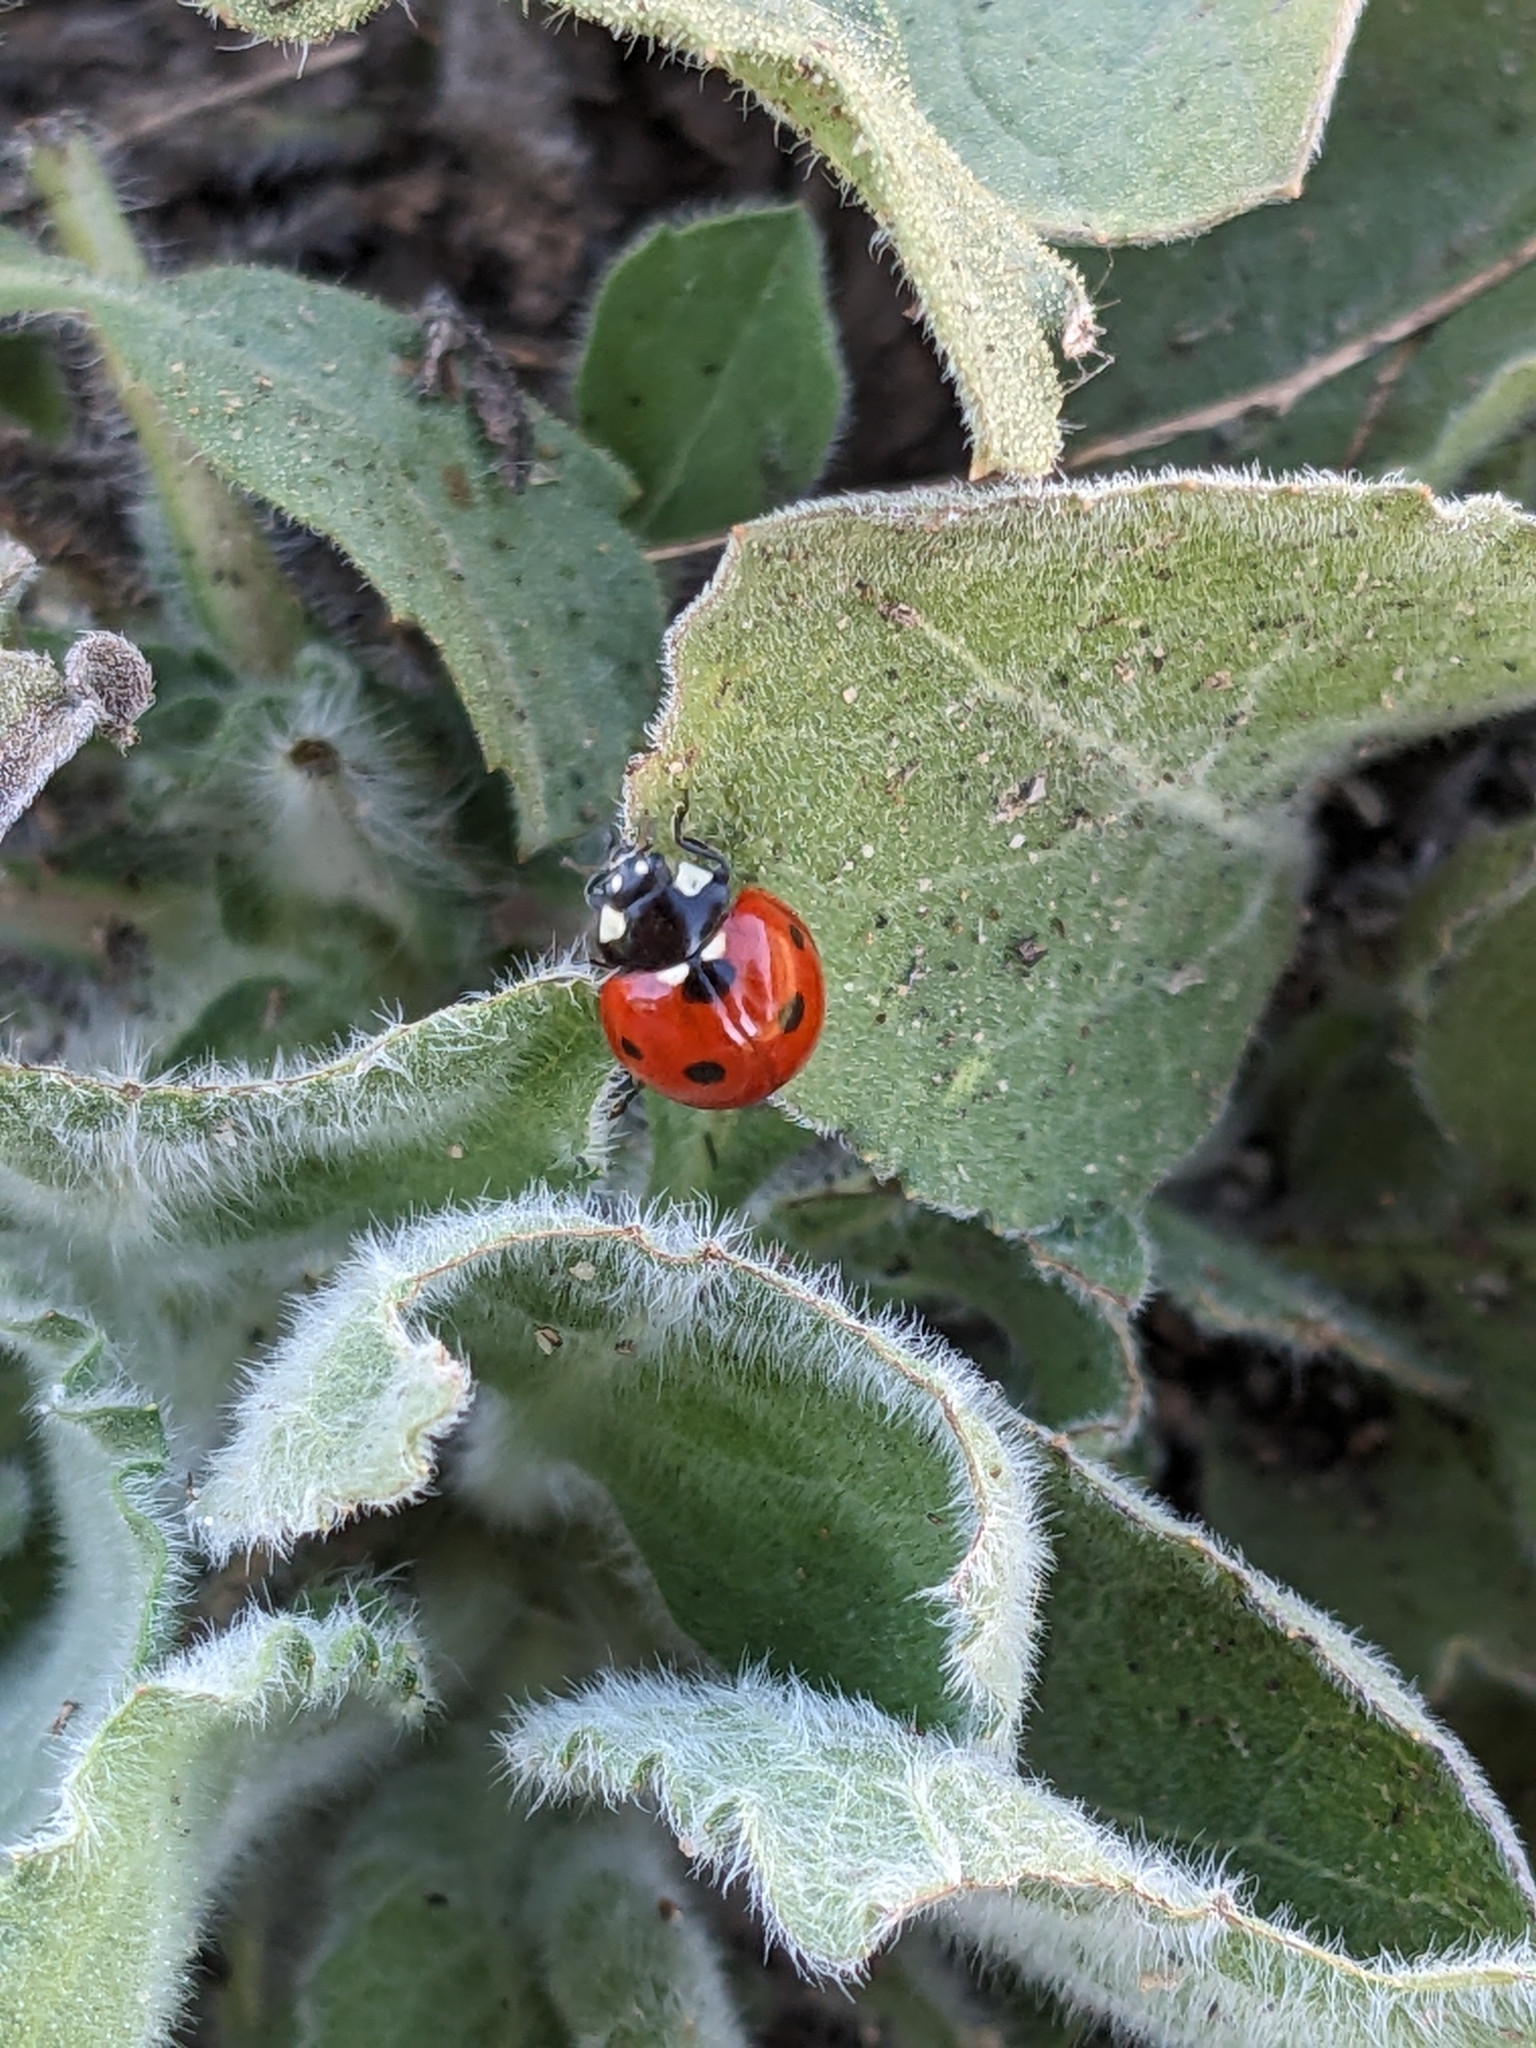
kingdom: Animalia
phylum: Arthropoda
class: Insecta
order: Coleoptera
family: Coccinellidae
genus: Coccinella
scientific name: Coccinella septempunctata
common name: Sevenspotted lady beetle
